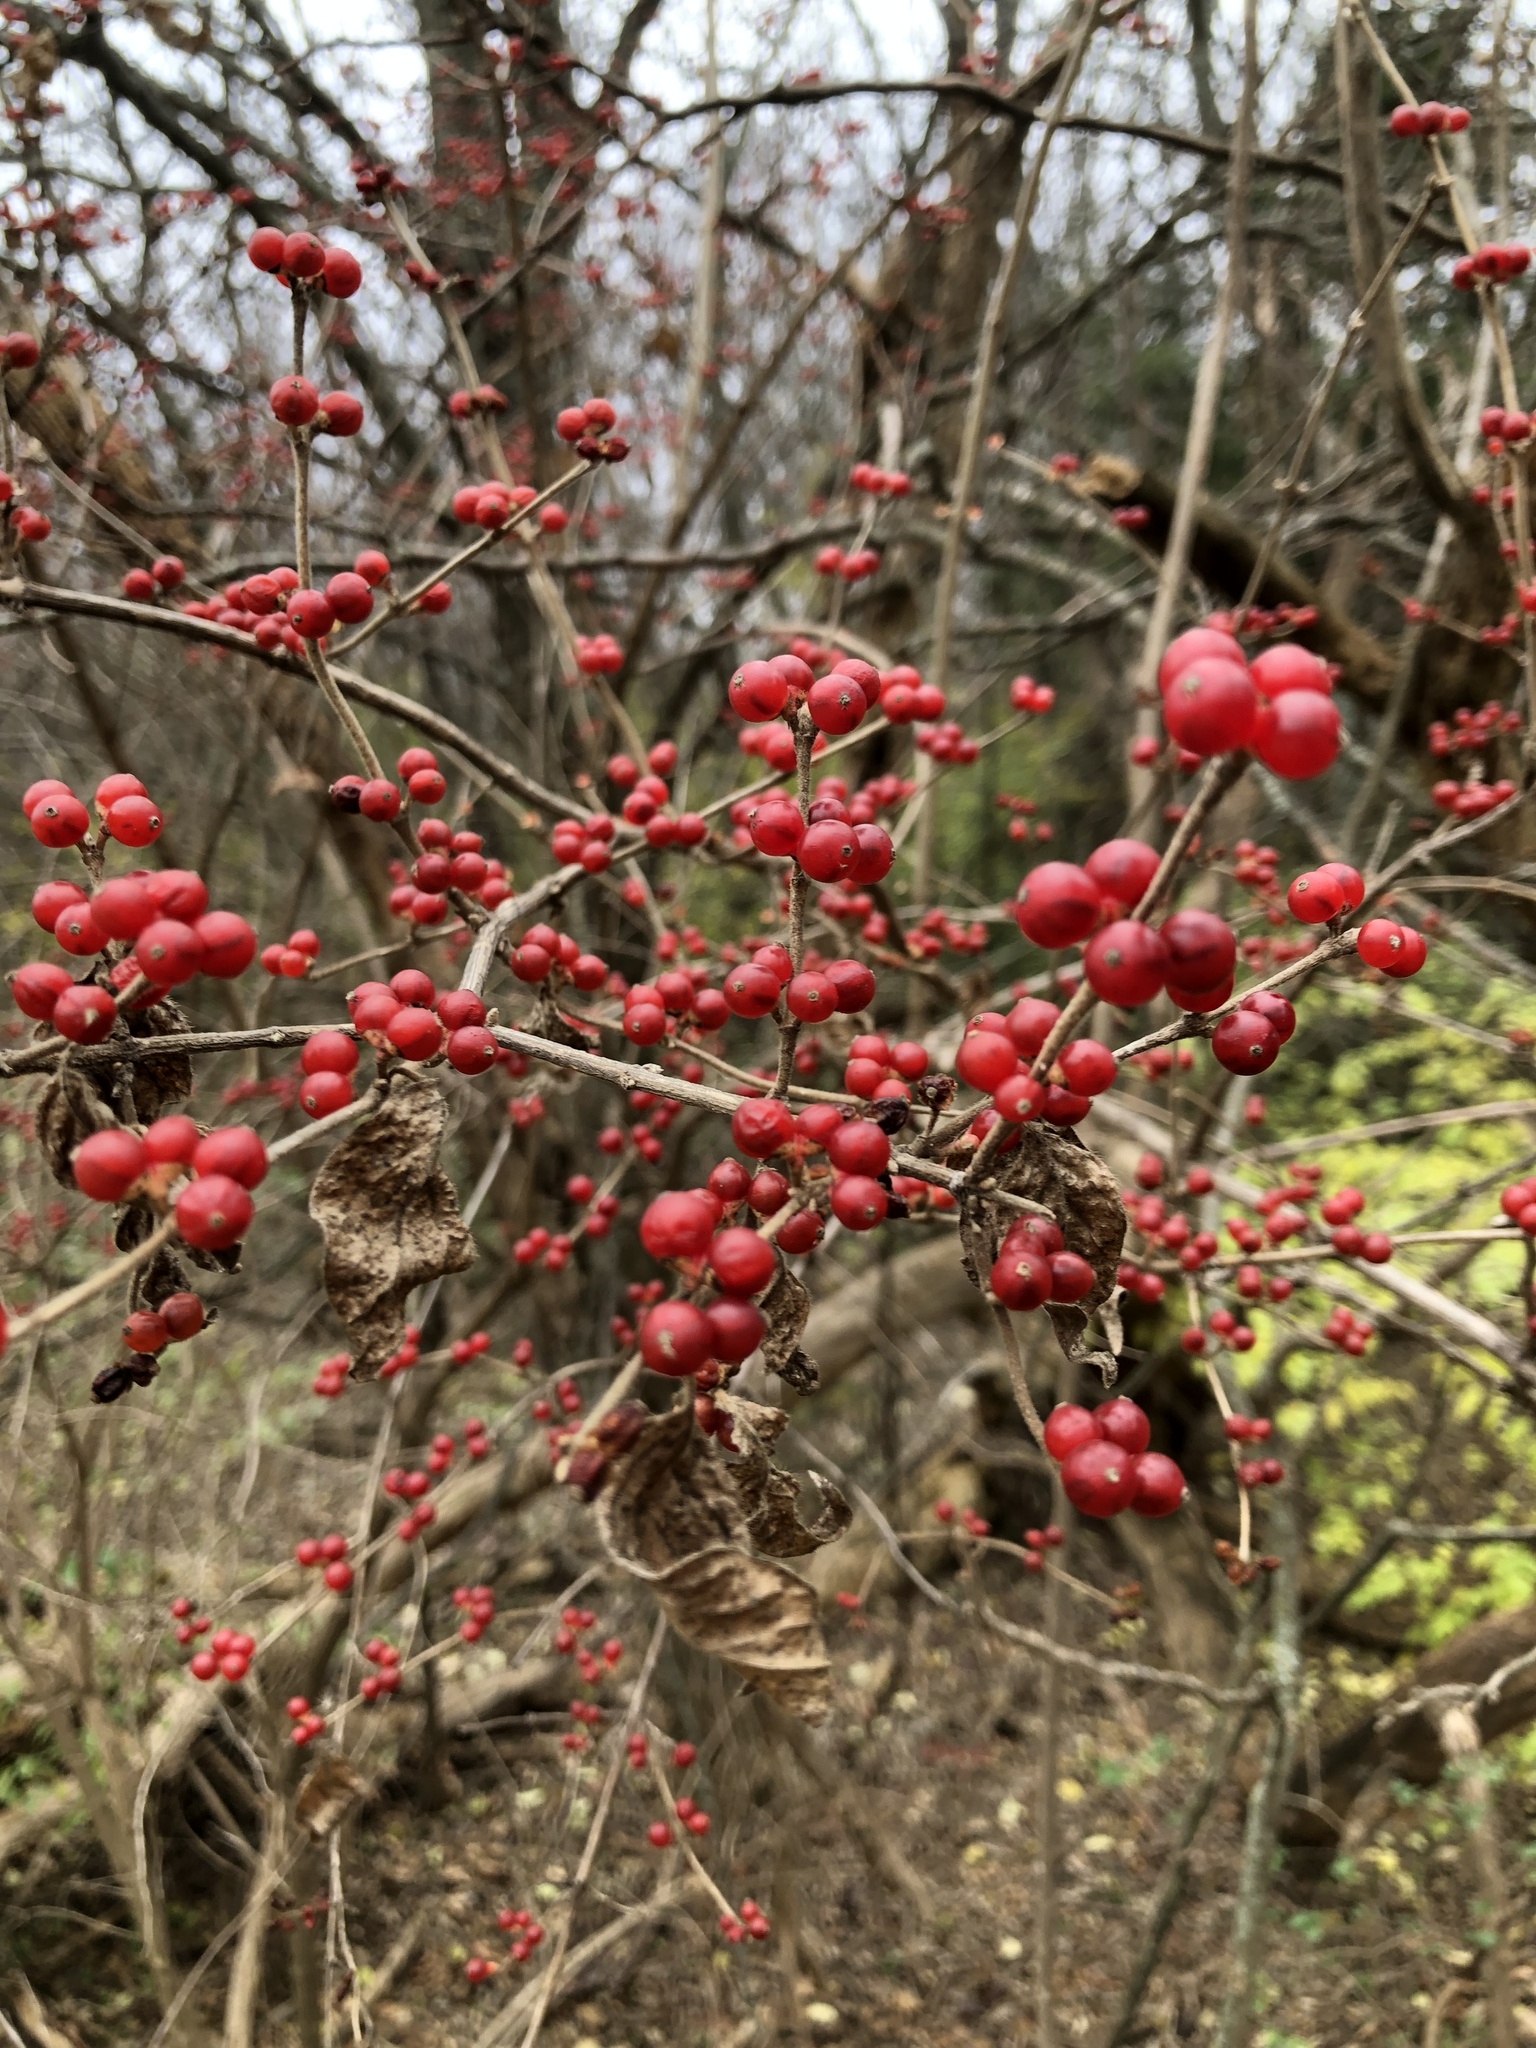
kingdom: Plantae
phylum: Tracheophyta
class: Magnoliopsida
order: Dipsacales
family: Caprifoliaceae
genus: Lonicera
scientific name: Lonicera maackii
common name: Amur honeysuckle
